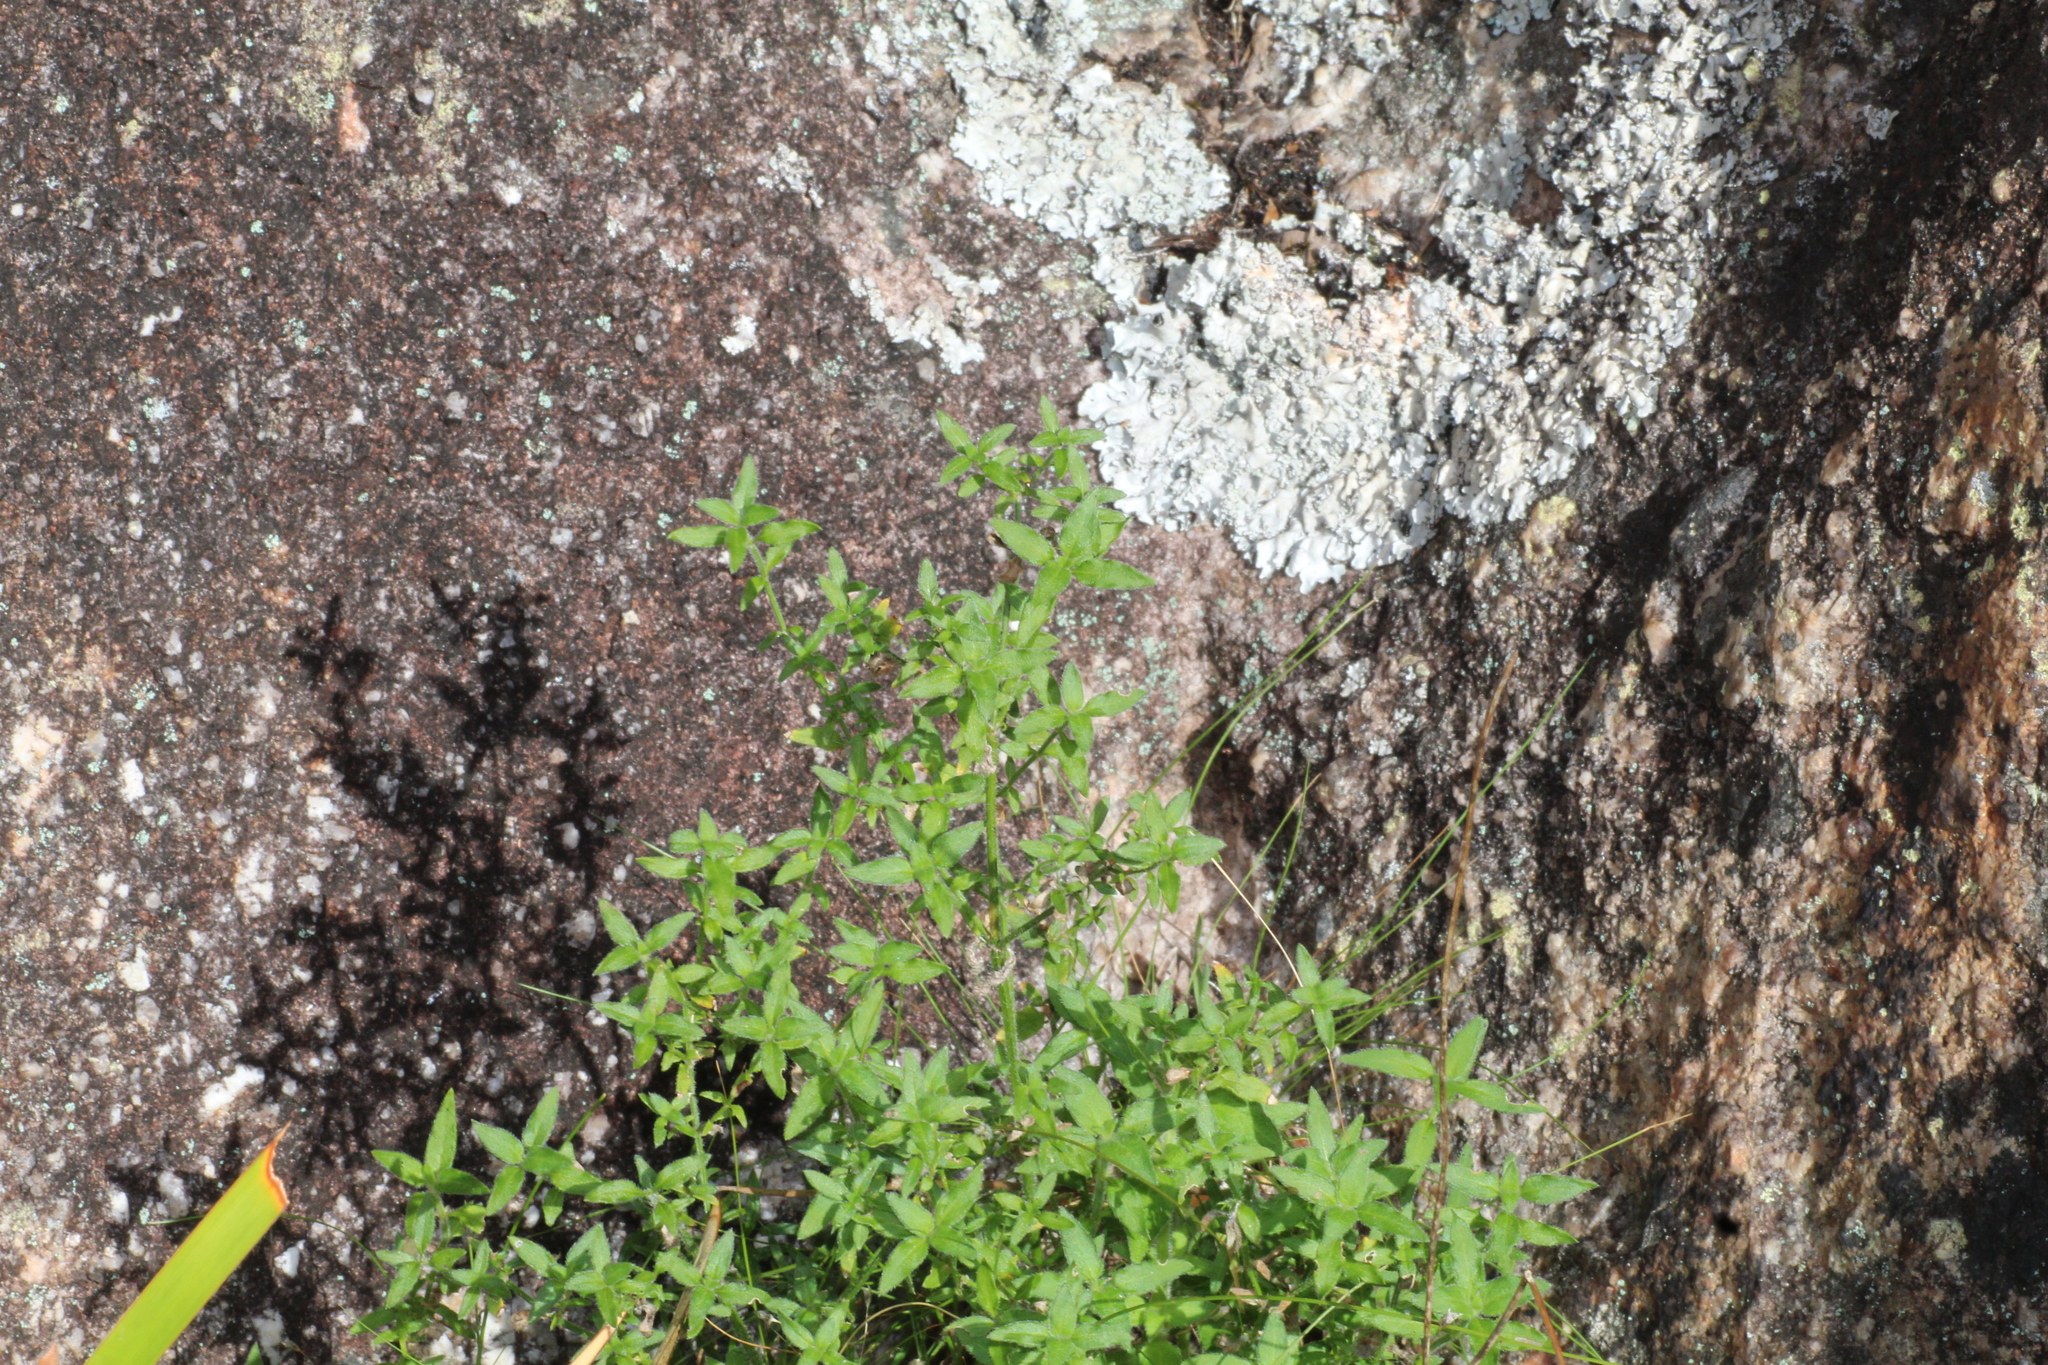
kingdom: Plantae
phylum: Tracheophyta
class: Magnoliopsida
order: Gentianales
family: Rubiaceae
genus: Opercularia
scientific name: Opercularia hispidula
